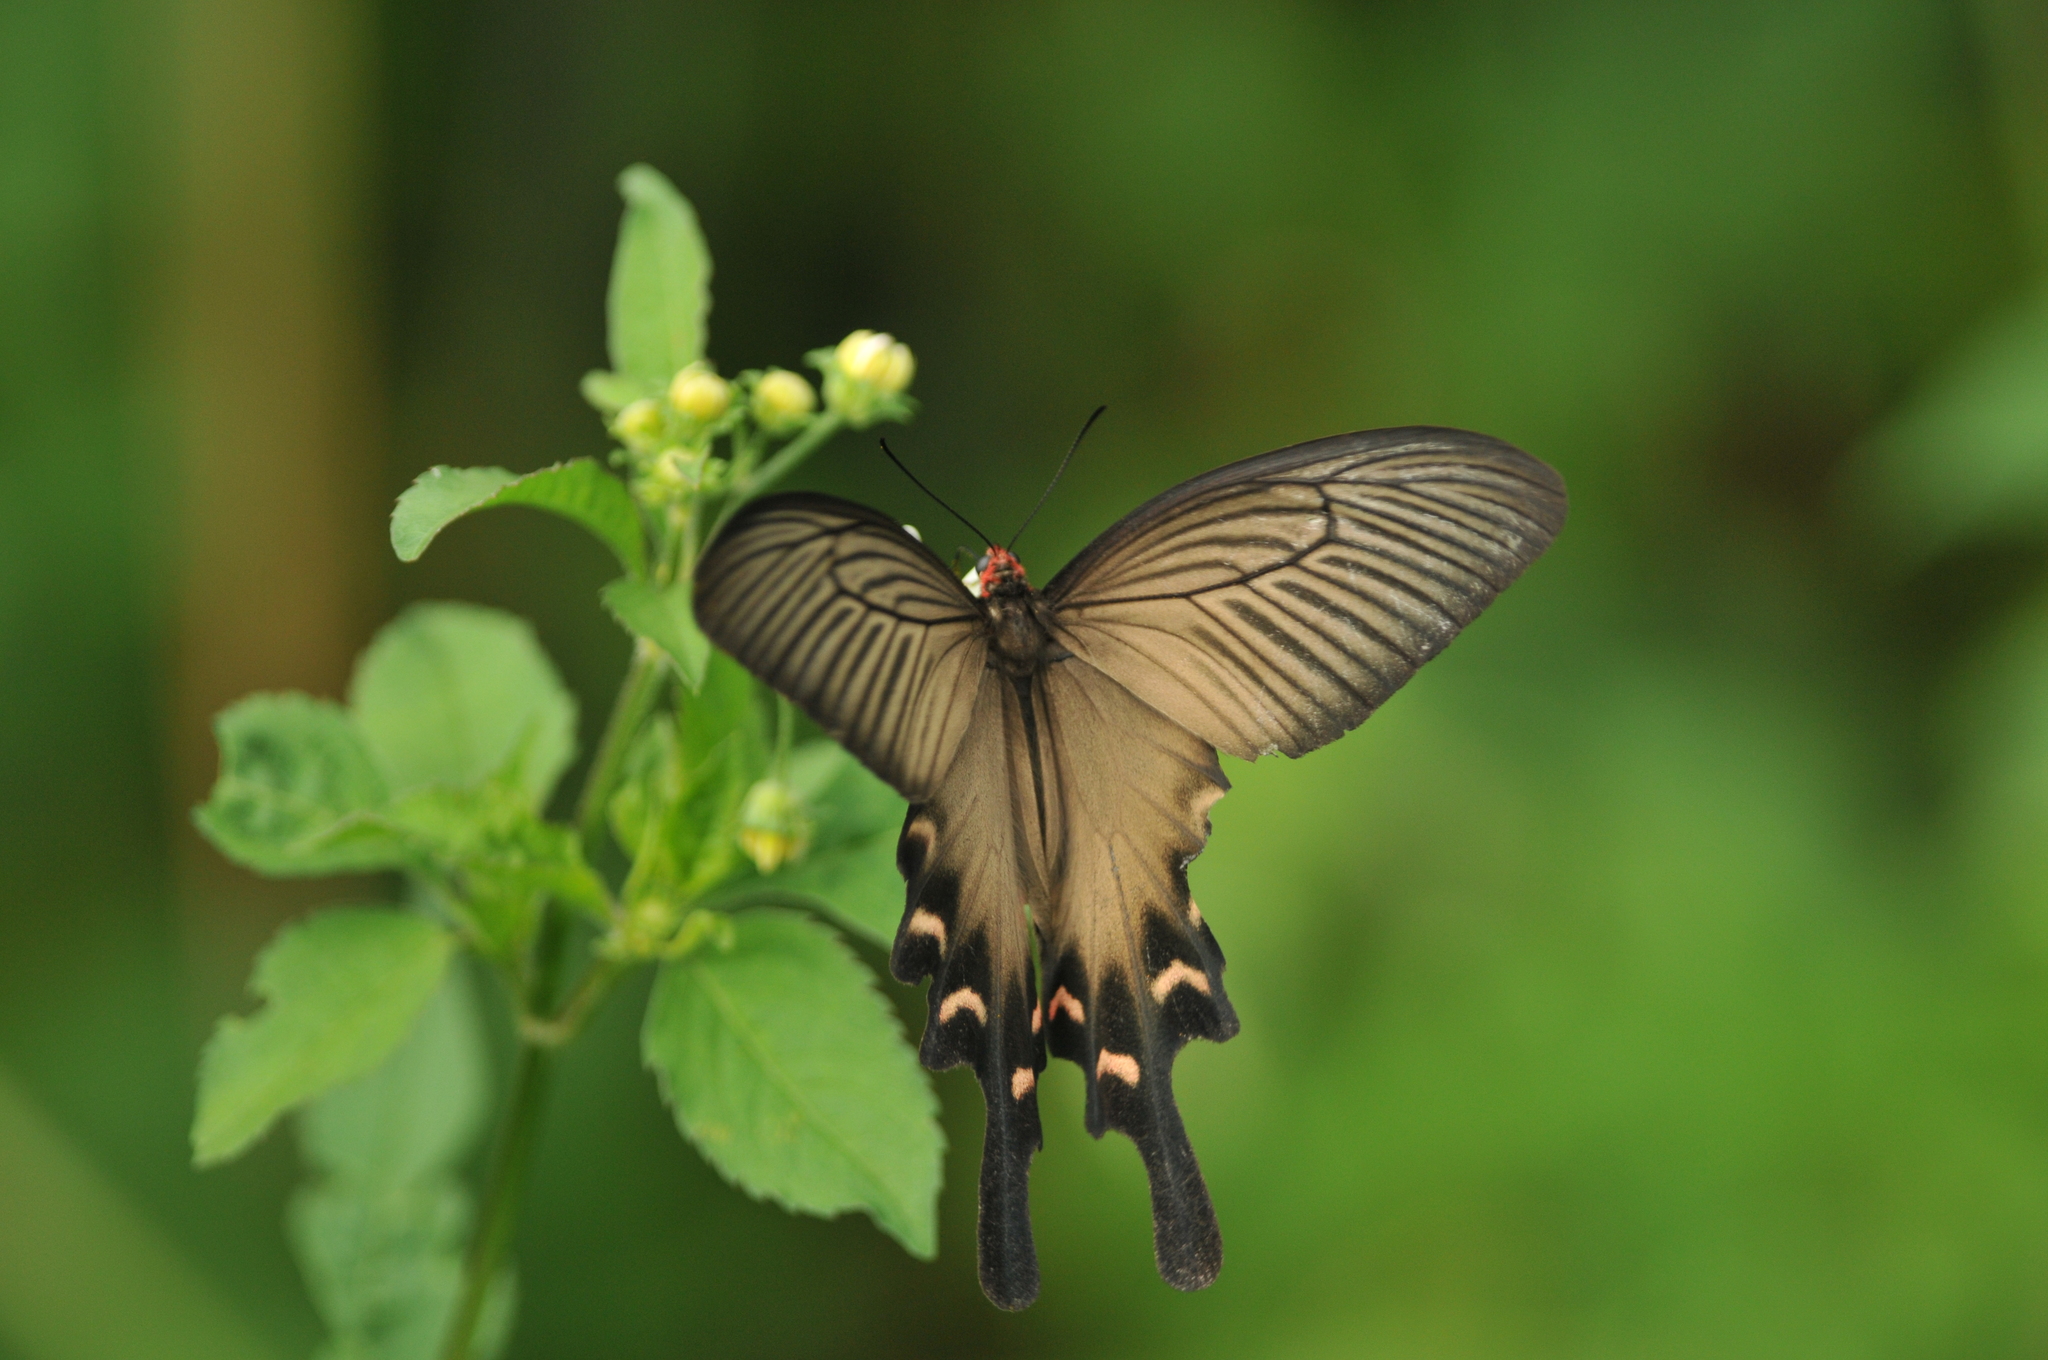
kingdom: Animalia
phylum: Arthropoda
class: Insecta
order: Lepidoptera
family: Papilionidae
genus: Byasa
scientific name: Byasa confusus
